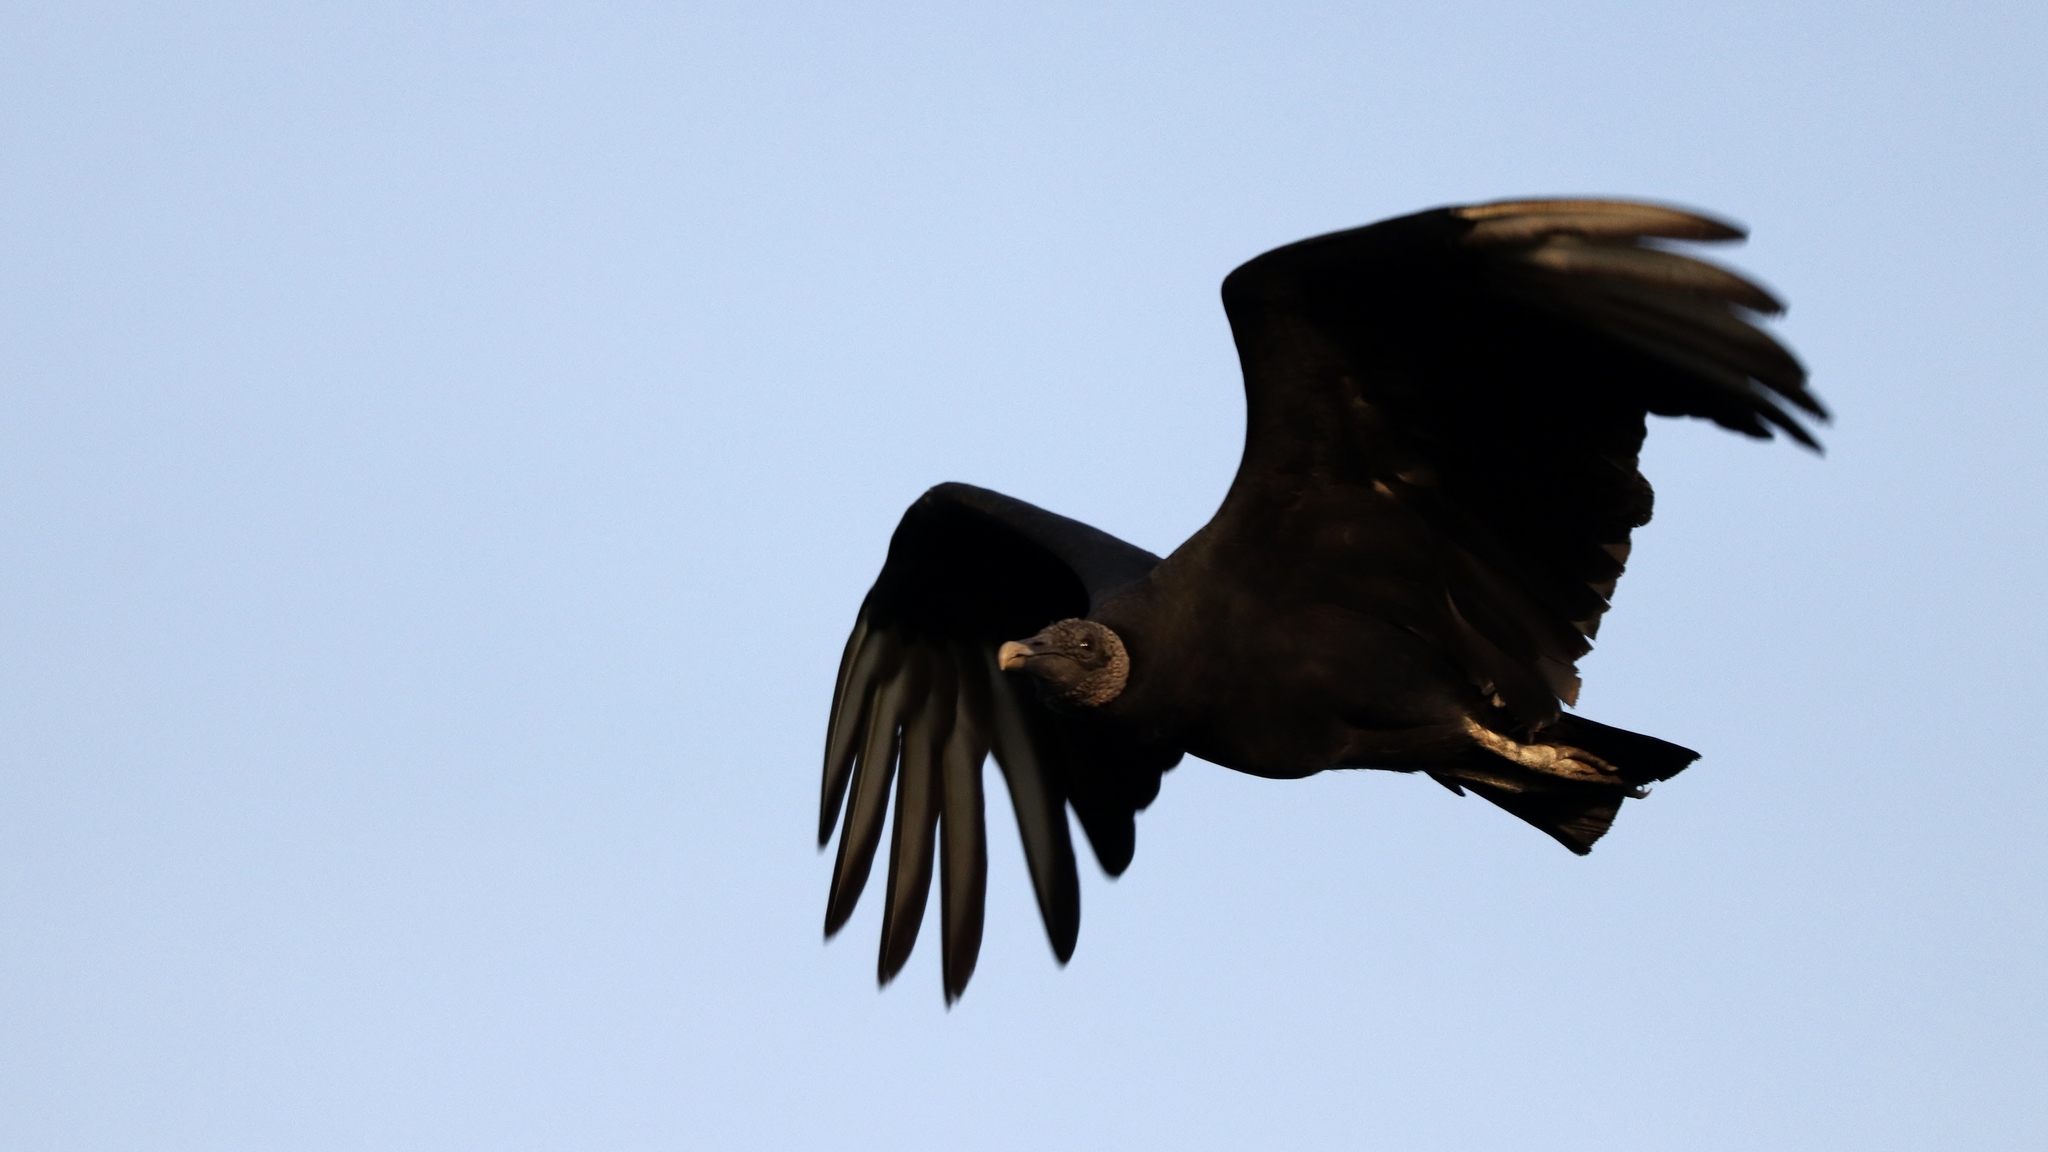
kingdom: Animalia
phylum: Chordata
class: Aves
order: Accipitriformes
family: Cathartidae
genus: Coragyps
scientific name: Coragyps atratus
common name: Black vulture
